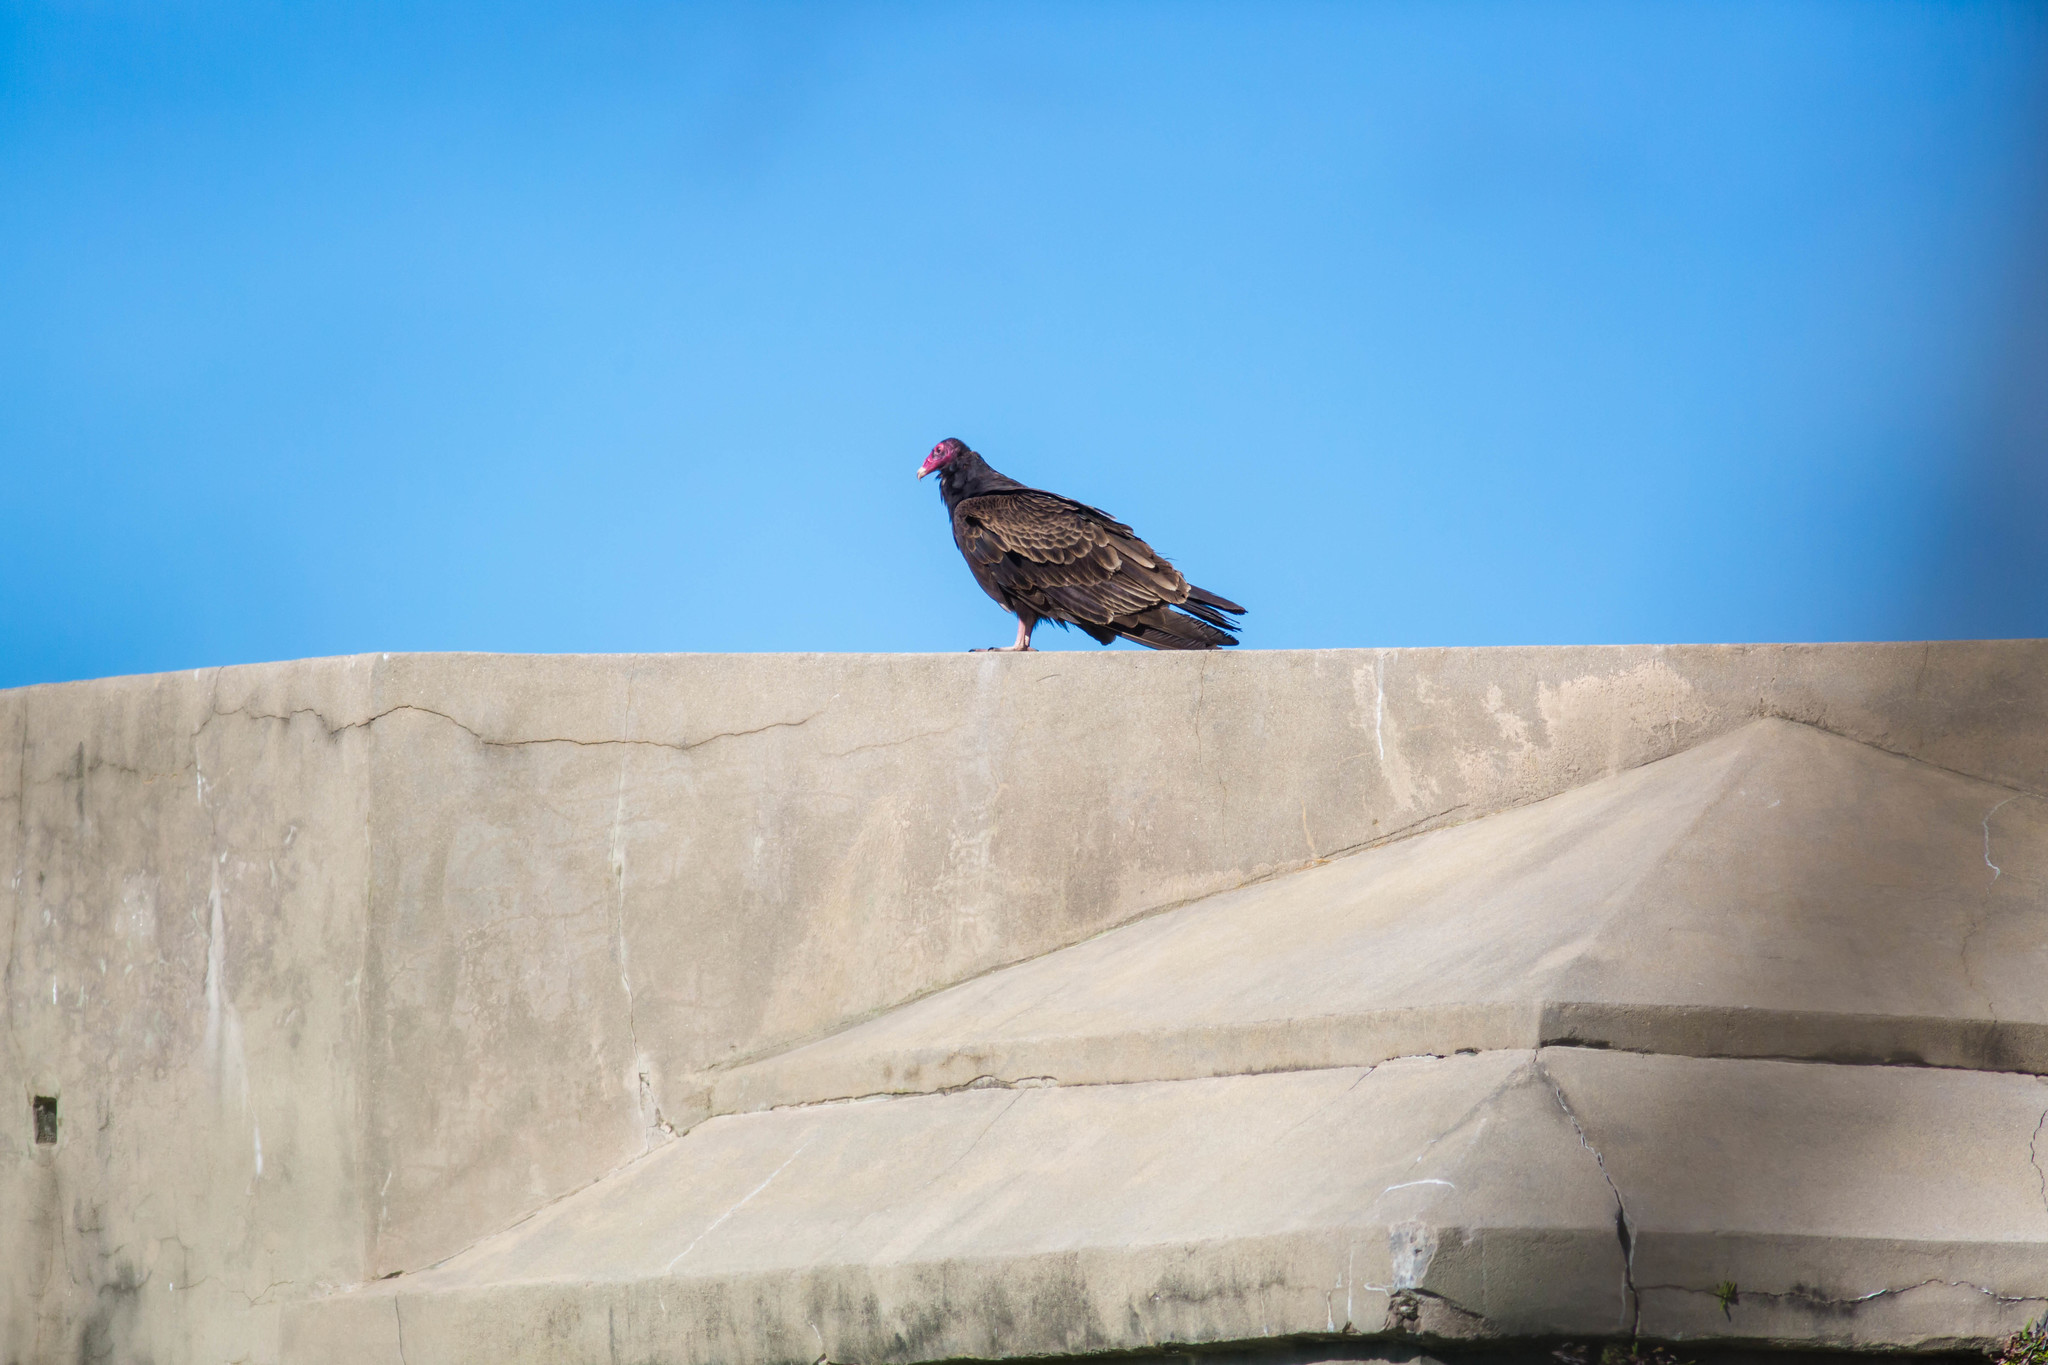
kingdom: Animalia
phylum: Chordata
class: Aves
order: Accipitriformes
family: Cathartidae
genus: Cathartes
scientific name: Cathartes aura
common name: Turkey vulture
